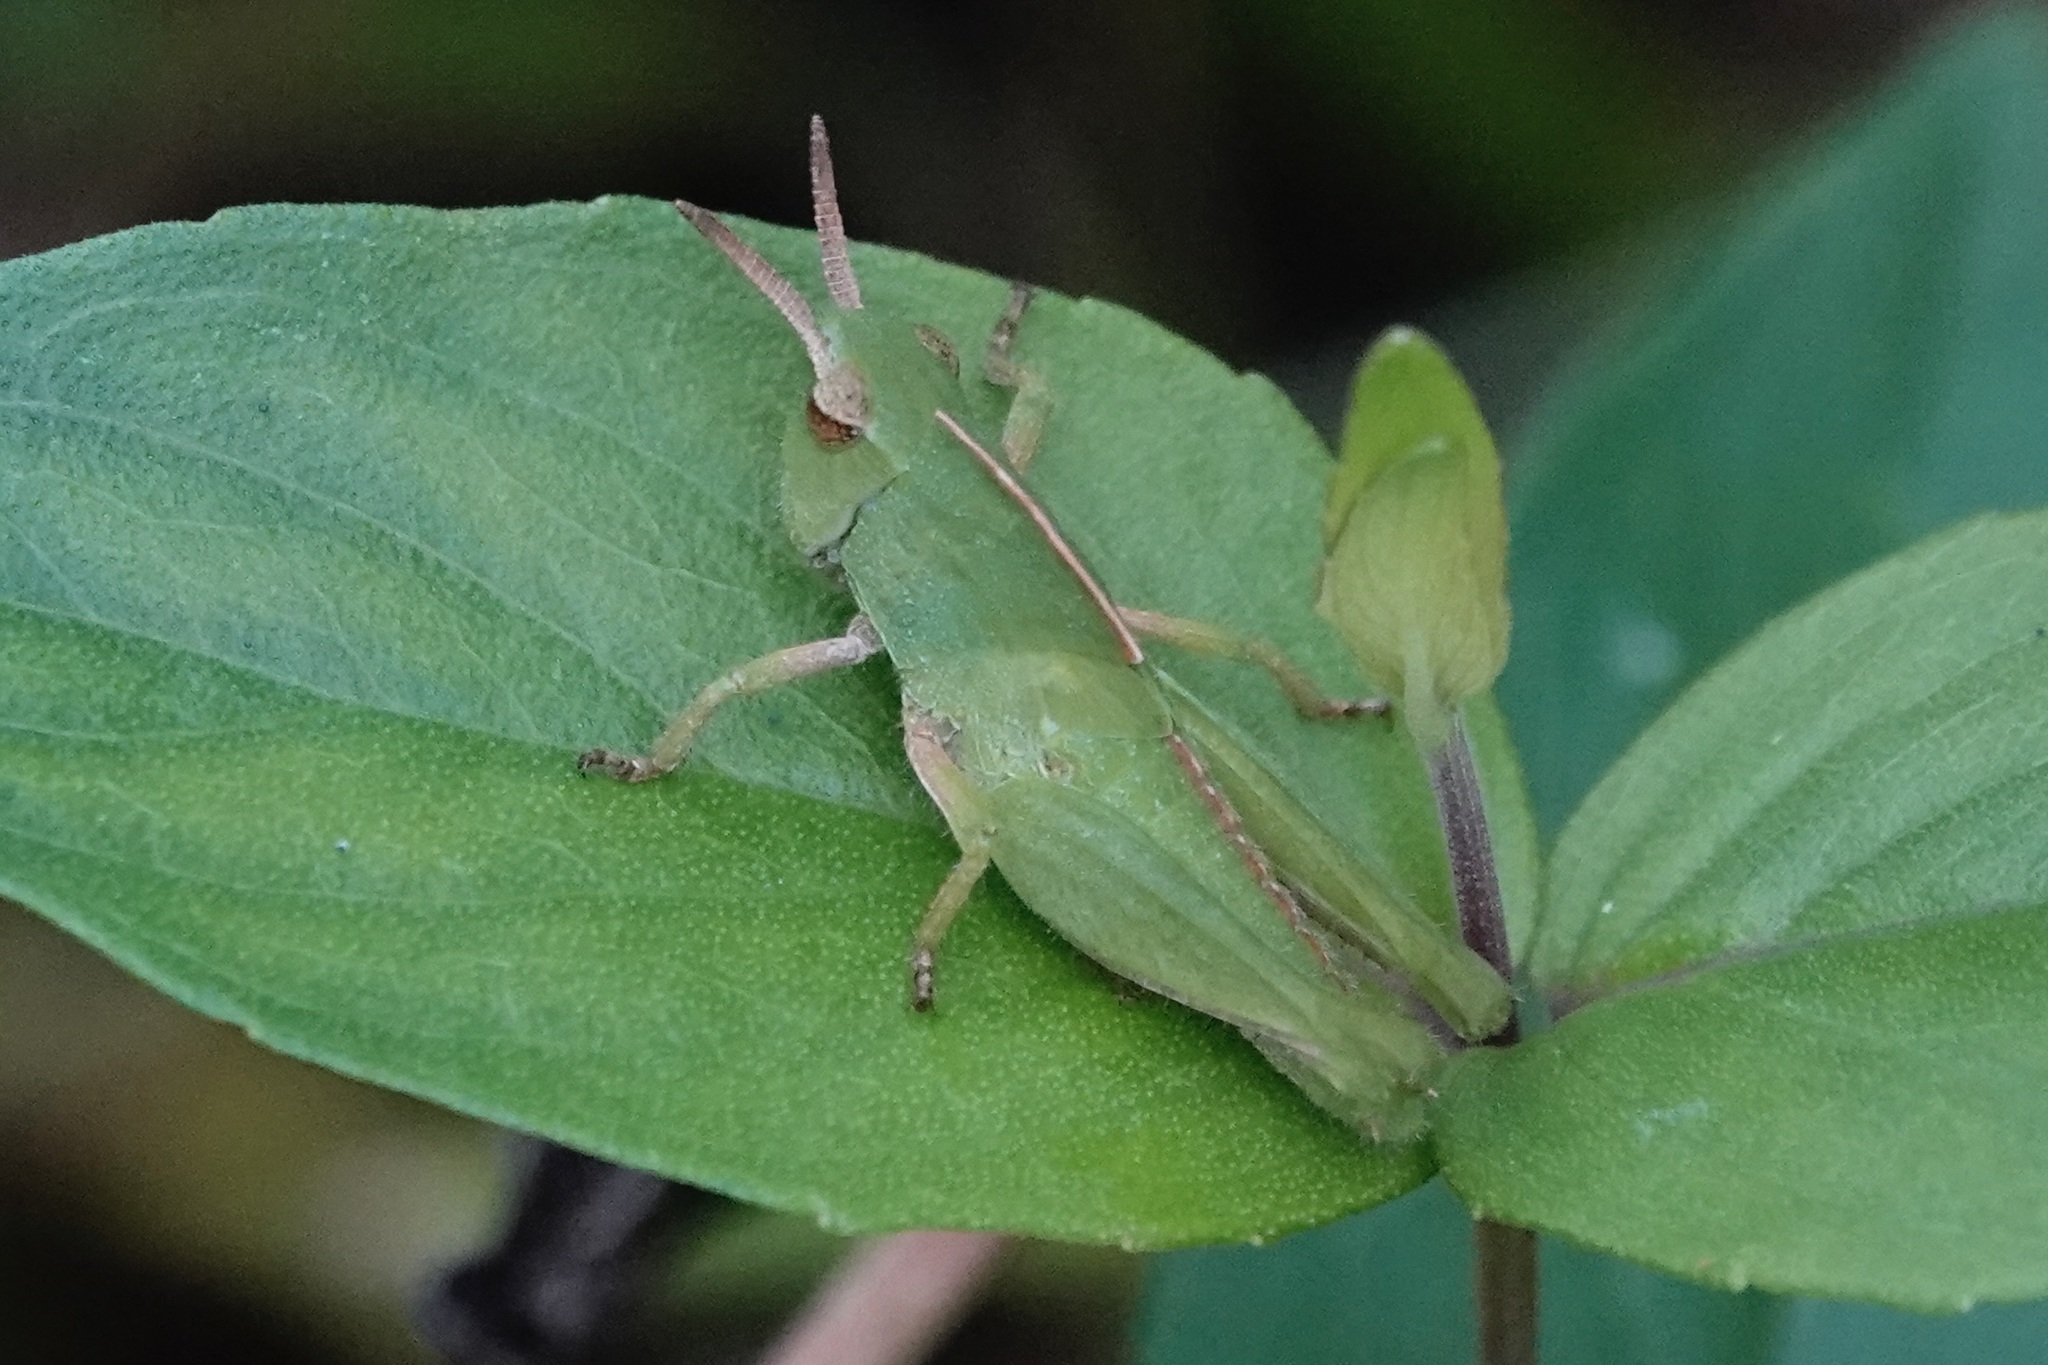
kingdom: Animalia
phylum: Arthropoda
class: Insecta
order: Orthoptera
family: Acrididae
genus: Chortophaga
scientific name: Chortophaga viridifasciata
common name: Green-striped grasshopper
